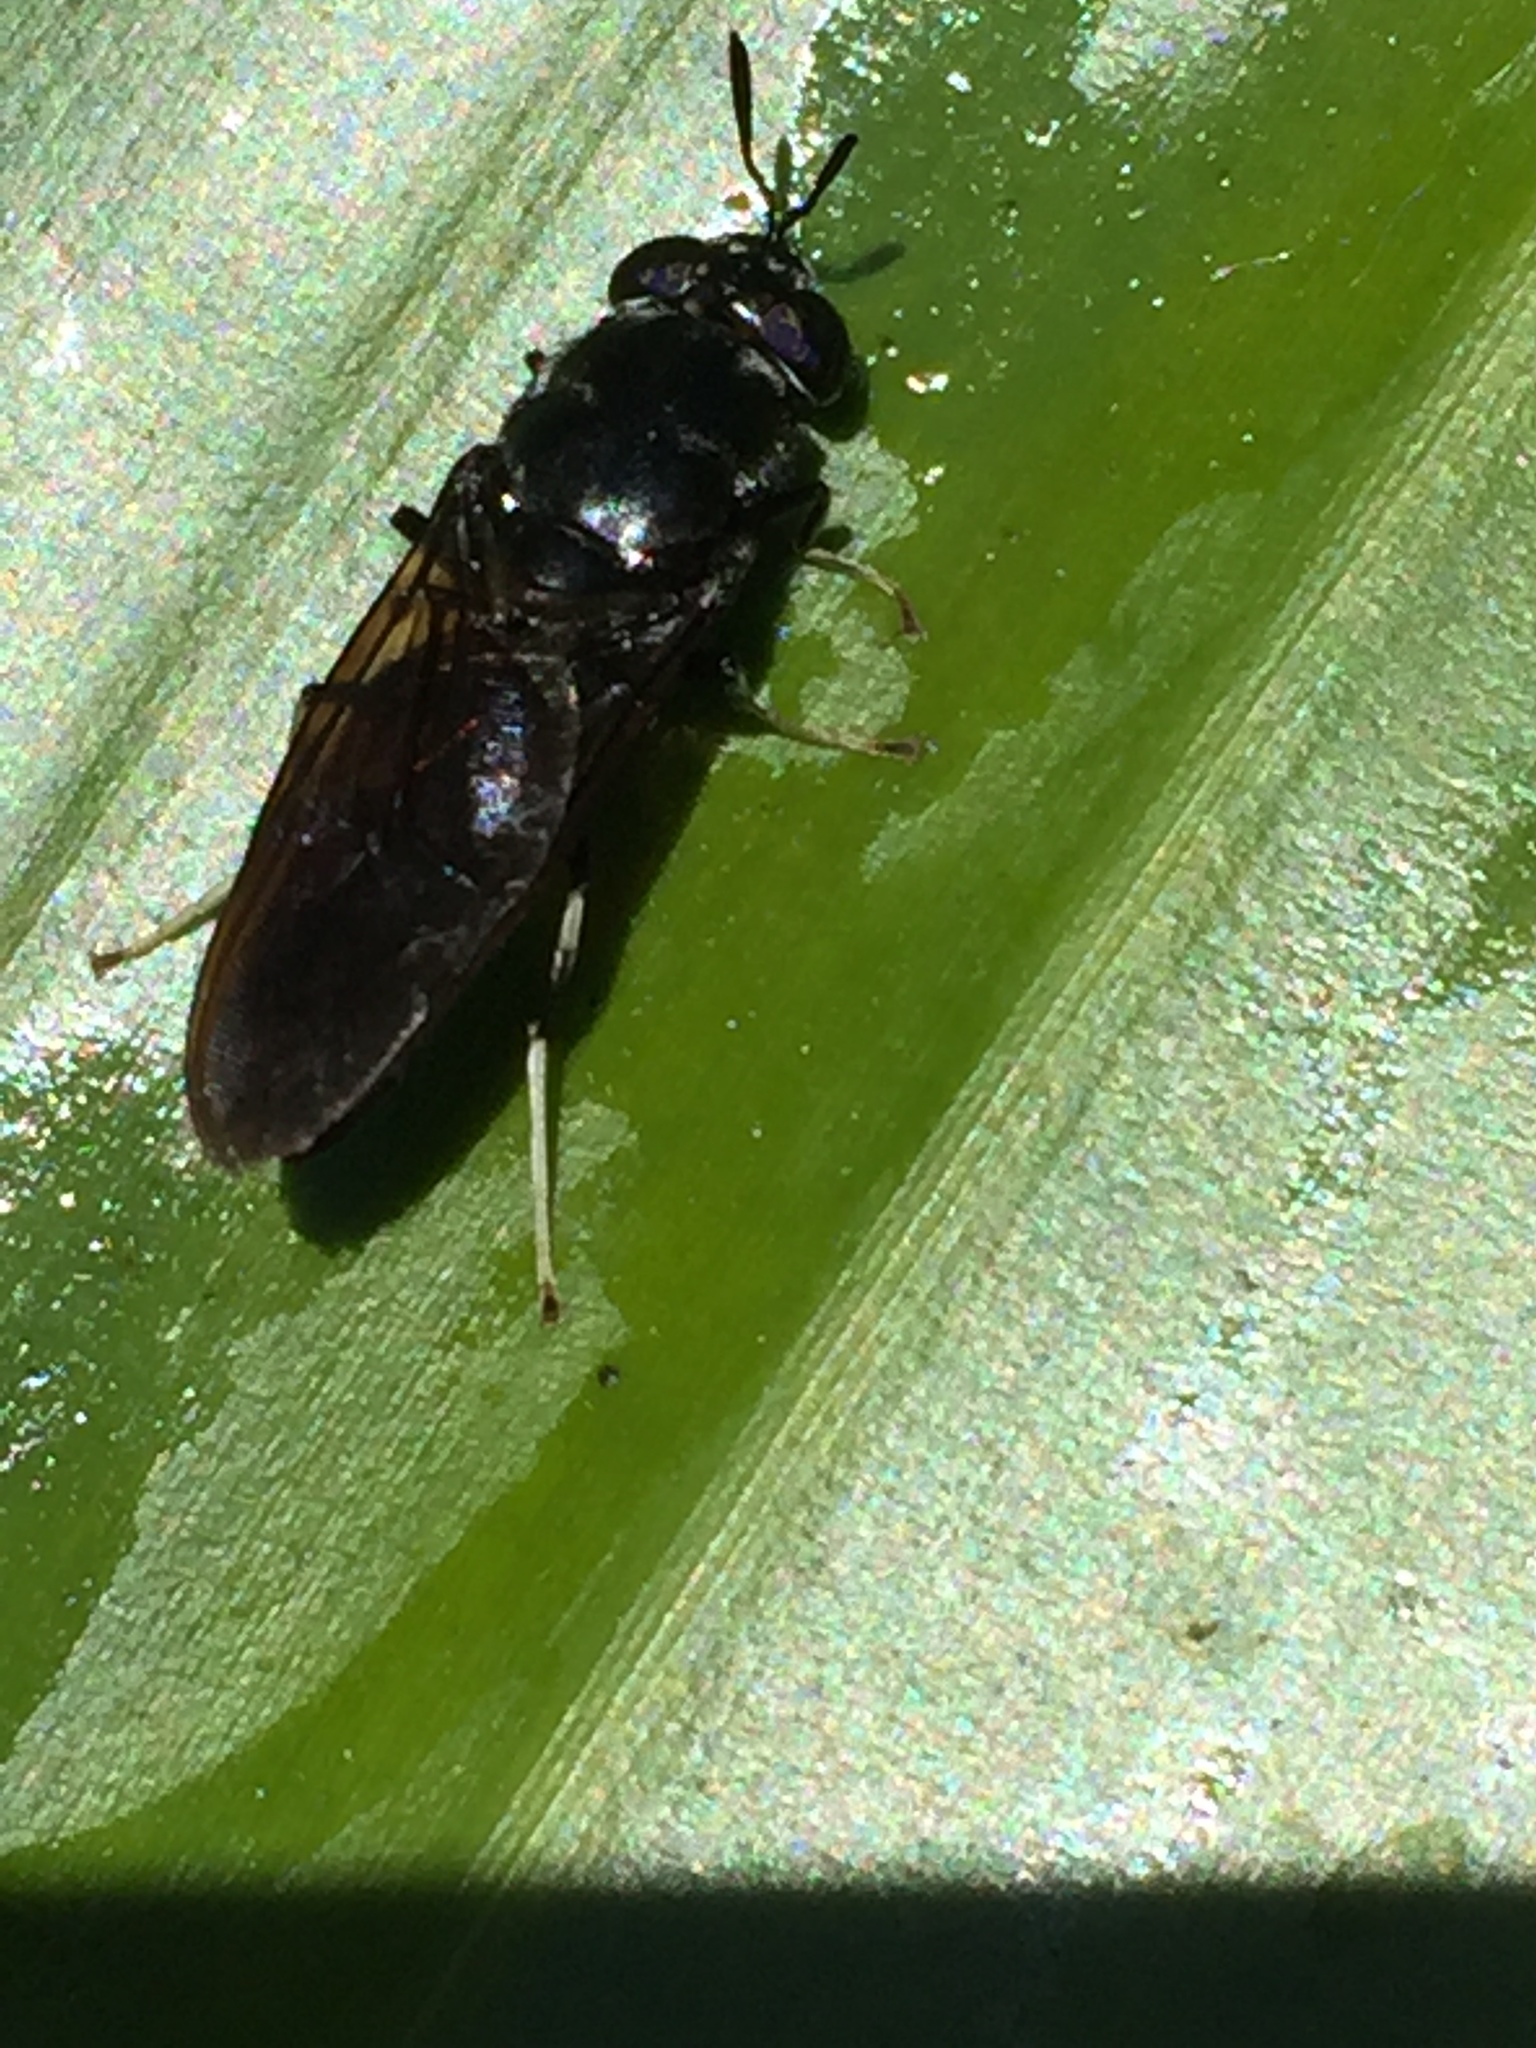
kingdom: Animalia
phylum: Arthropoda
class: Insecta
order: Diptera
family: Stratiomyidae
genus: Hermetia
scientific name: Hermetia illucens
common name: Black soldier fly
